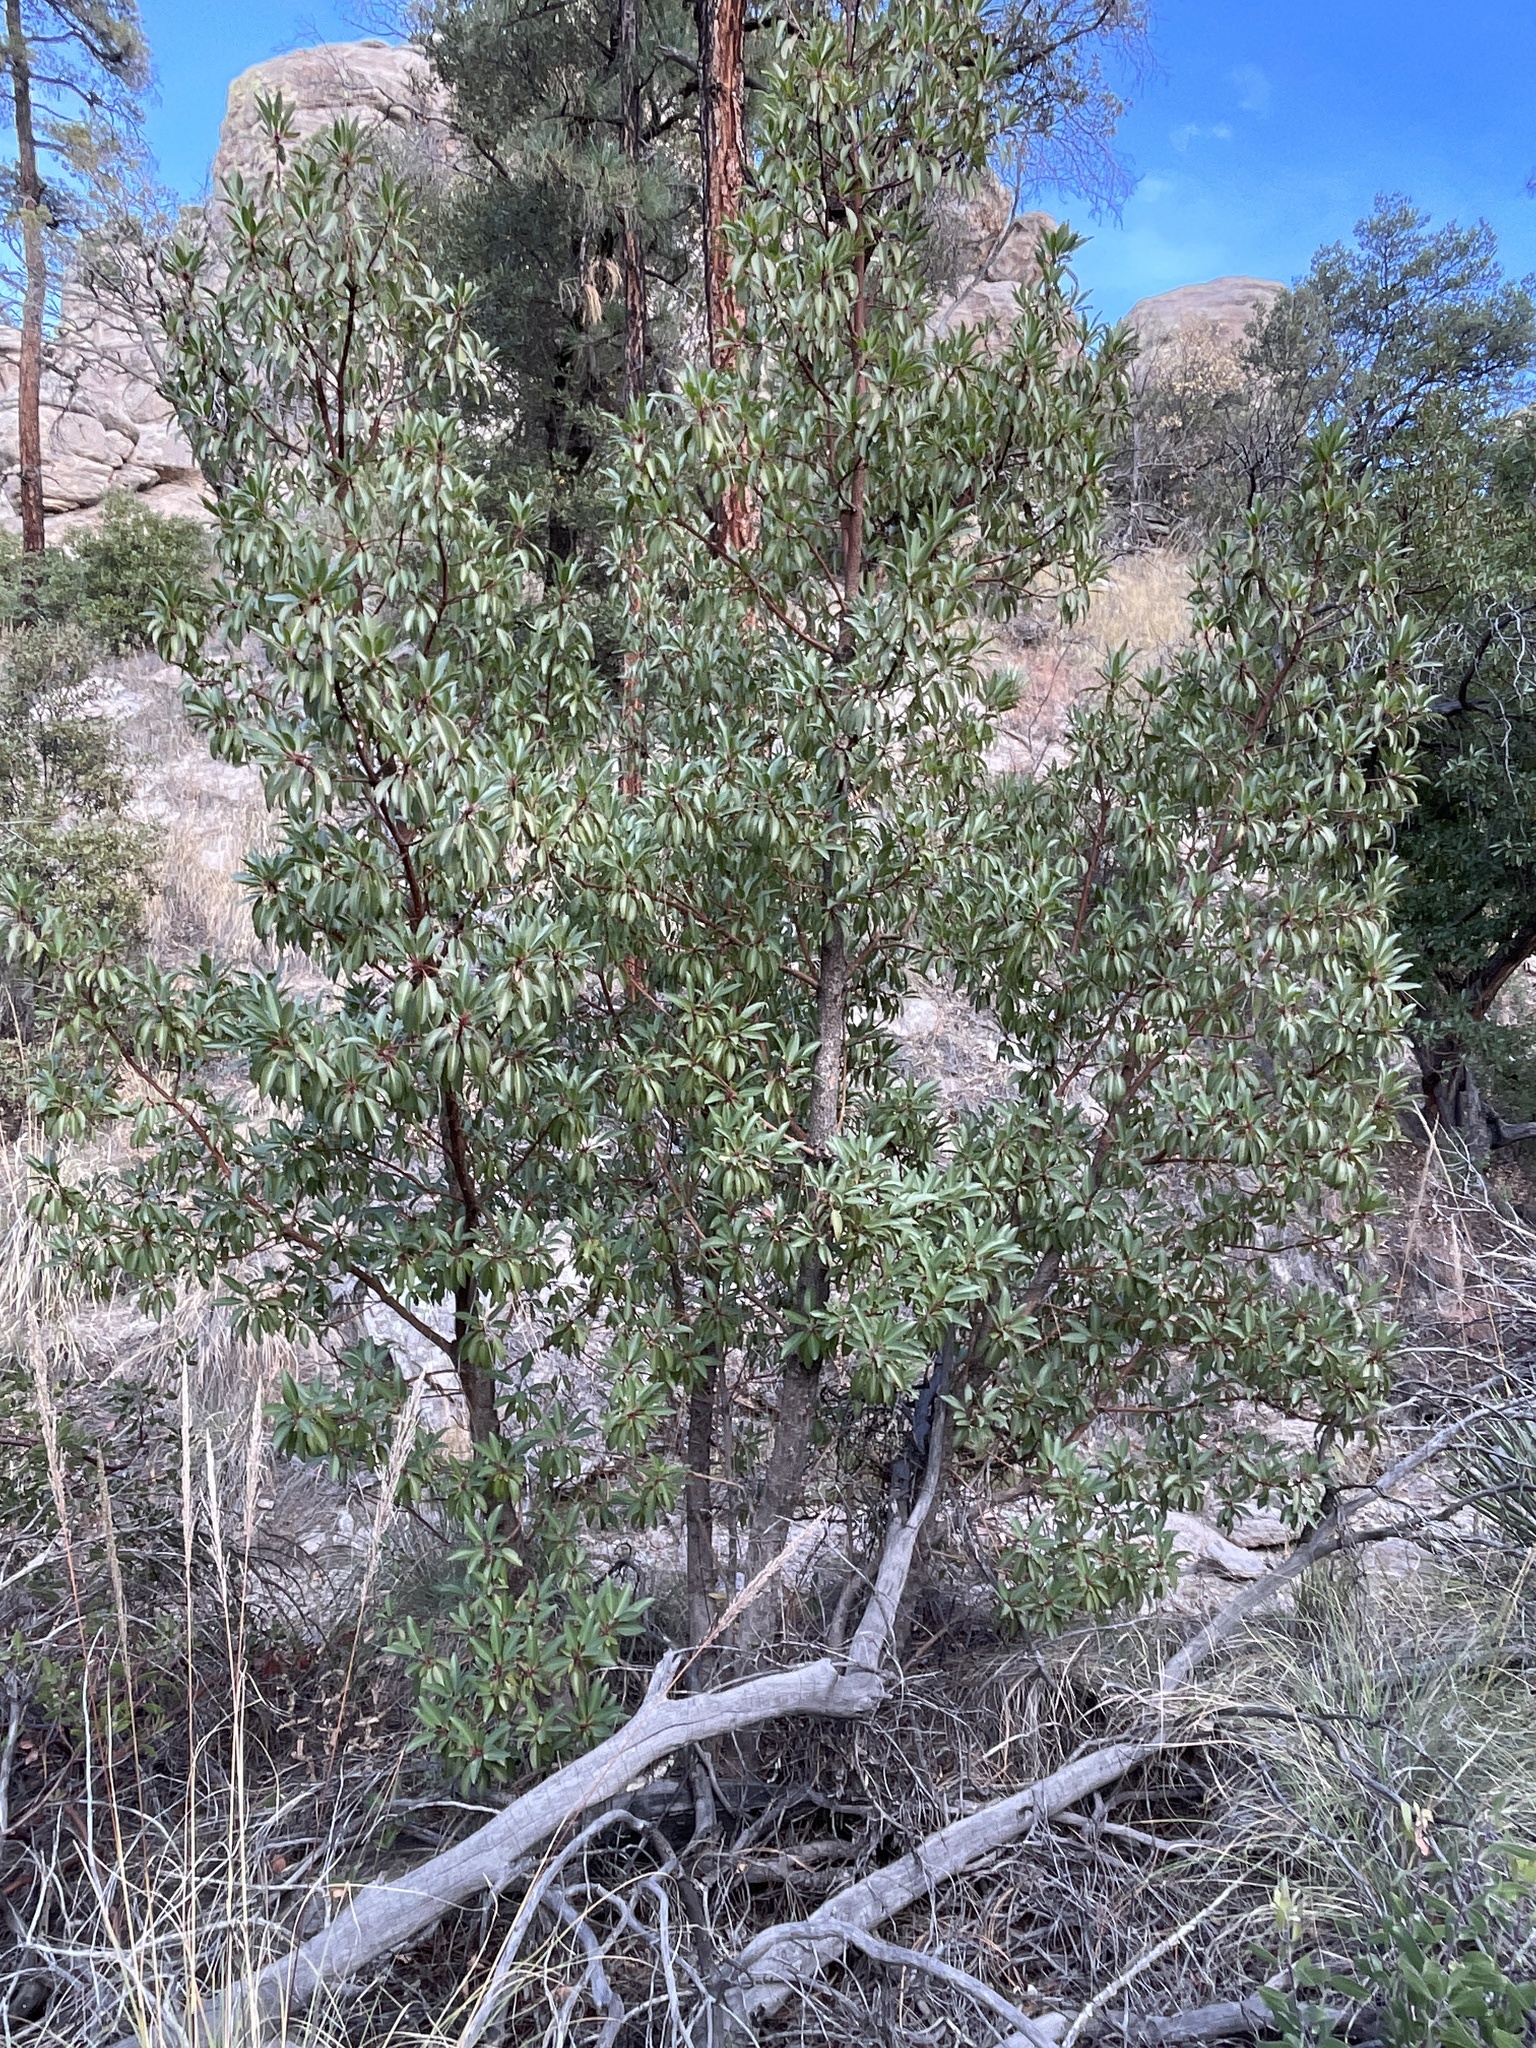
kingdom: Plantae
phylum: Tracheophyta
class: Magnoliopsida
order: Ericales
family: Ericaceae
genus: Arbutus
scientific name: Arbutus arizonica
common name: Arizona madrone
